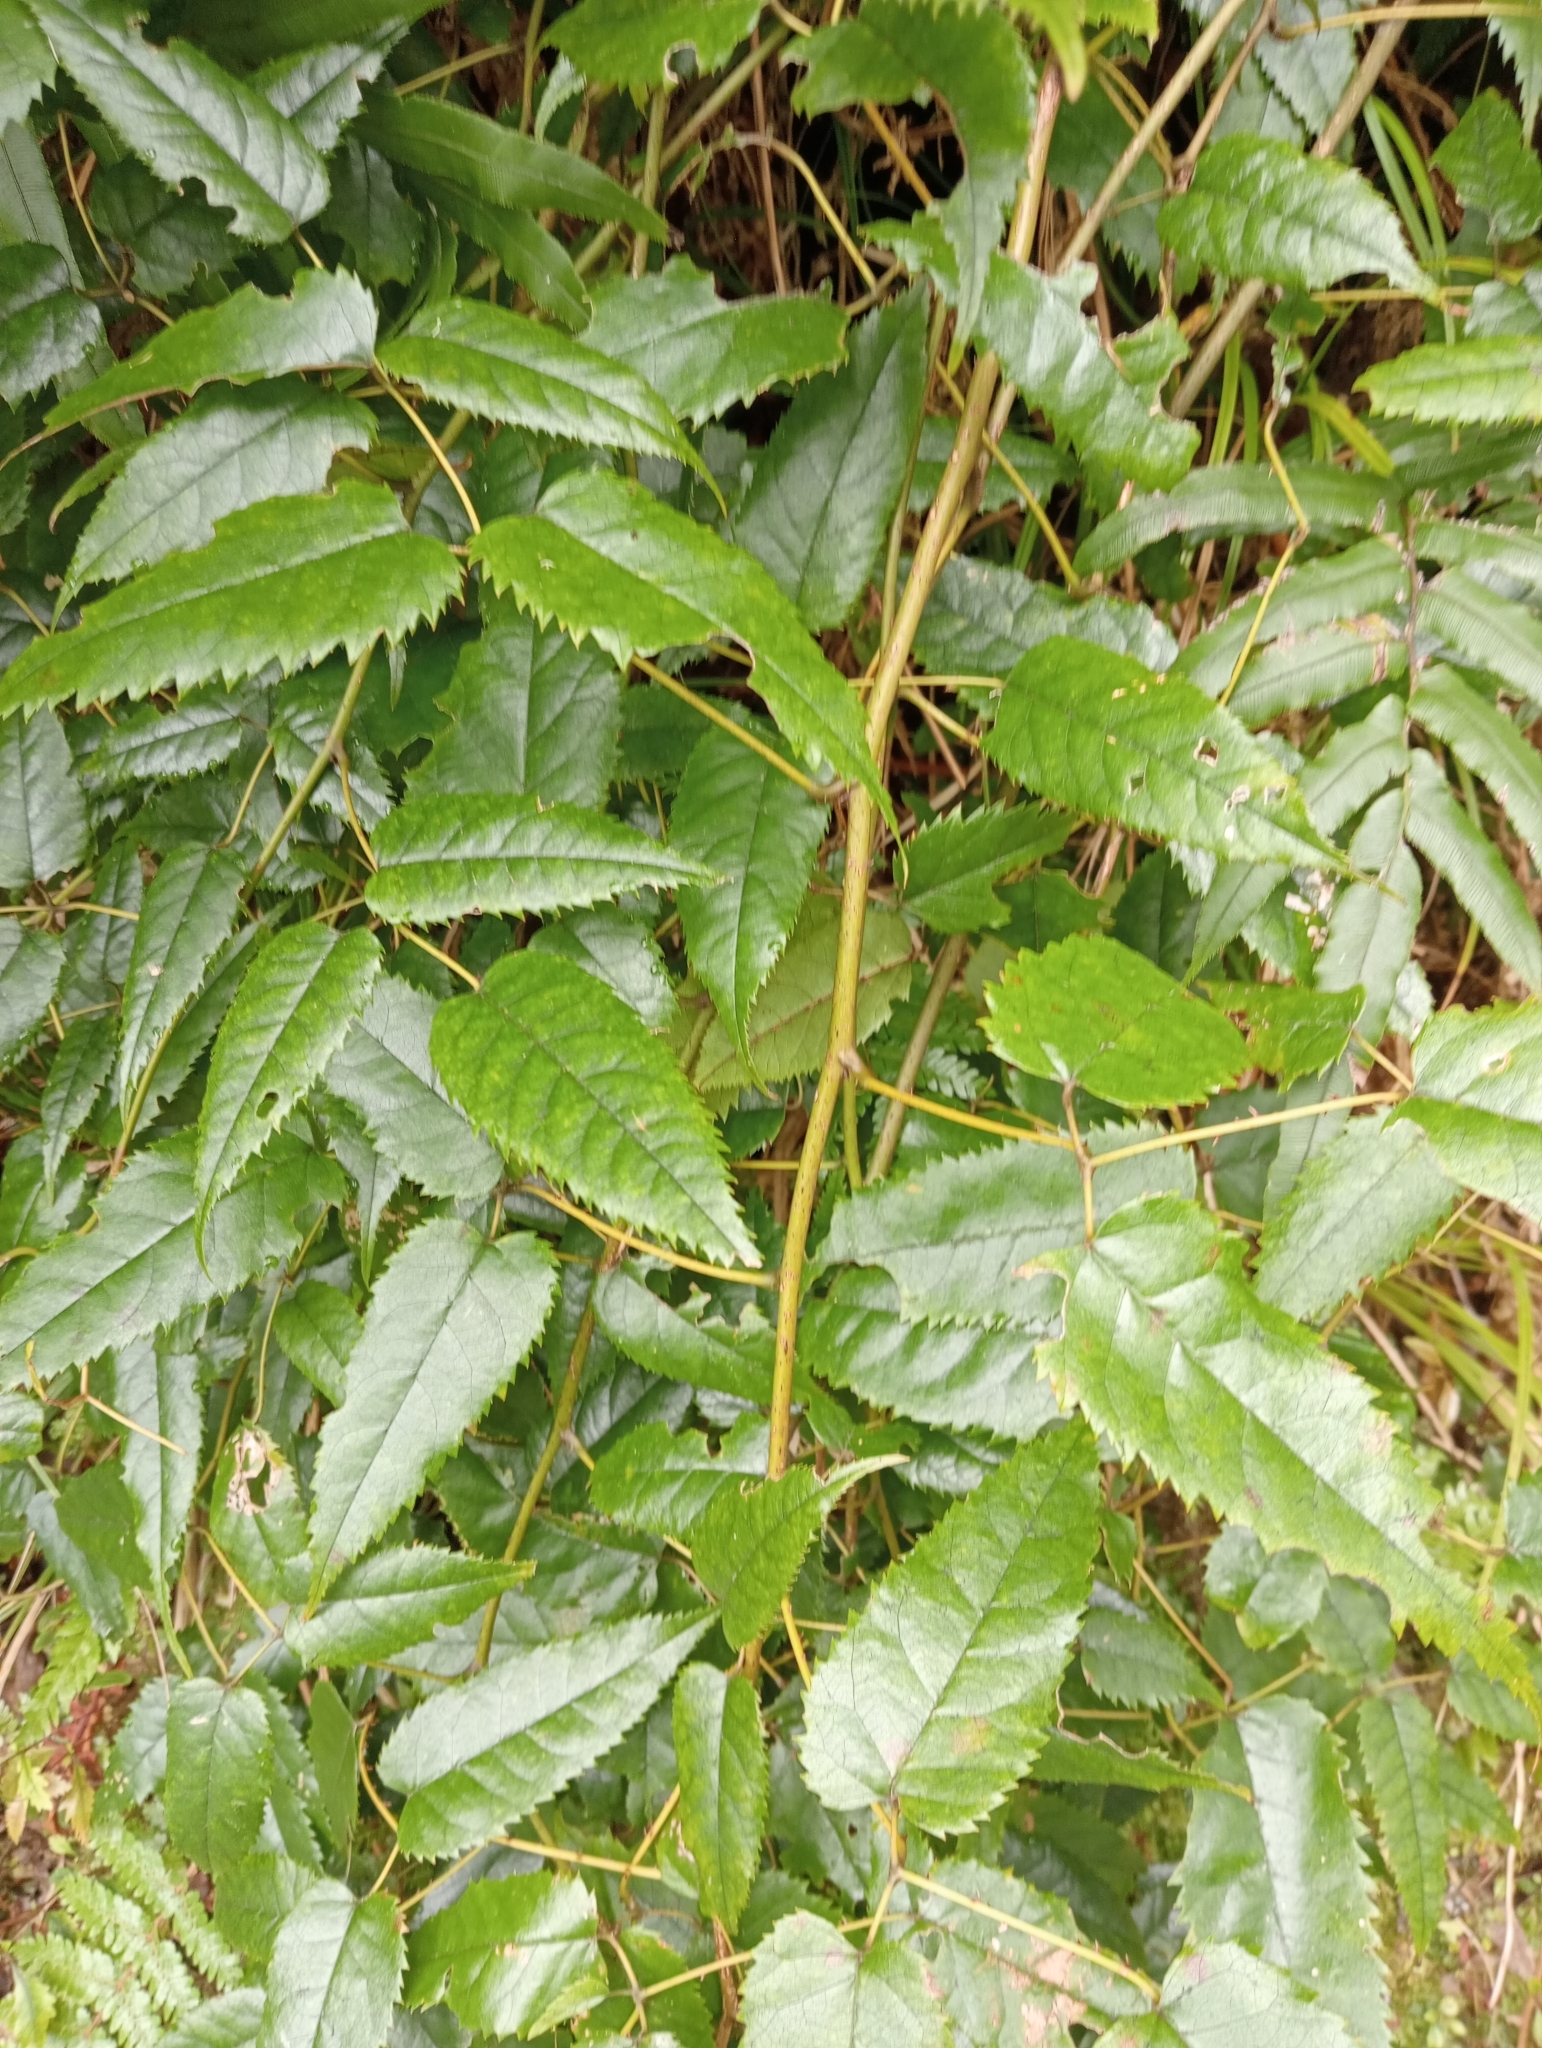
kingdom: Plantae
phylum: Tracheophyta
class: Magnoliopsida
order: Rosales
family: Rosaceae
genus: Rubus
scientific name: Rubus cissoides
